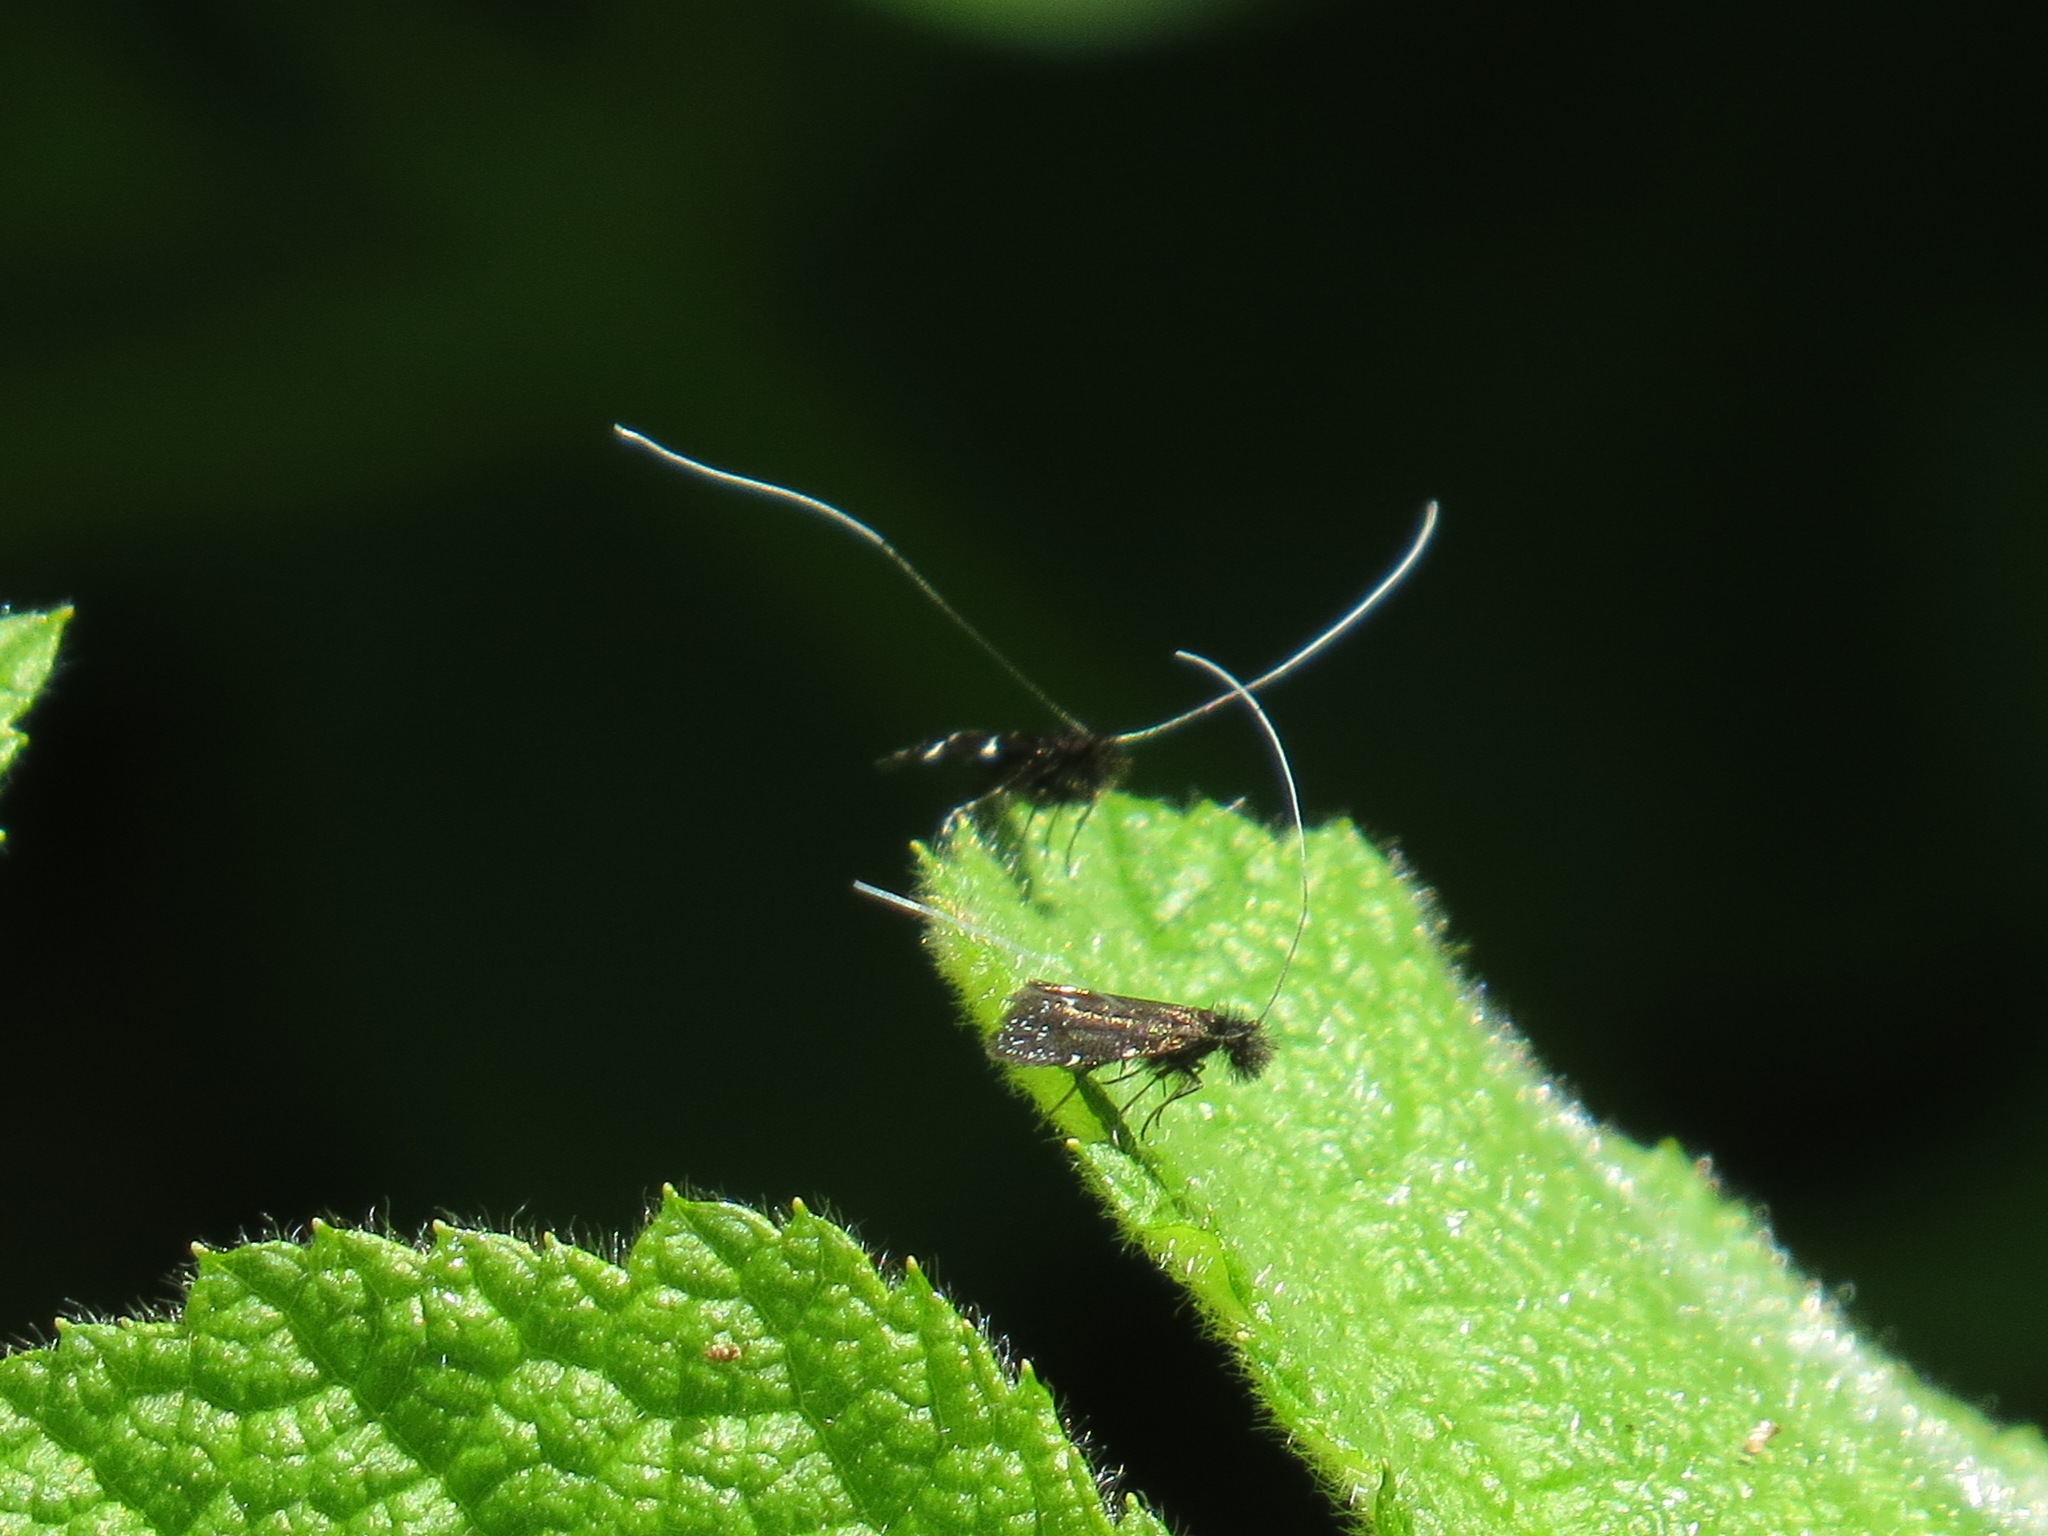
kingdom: Animalia
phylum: Arthropoda
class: Insecta
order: Lepidoptera
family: Adelidae
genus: Adela
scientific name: Adela septentrionella
